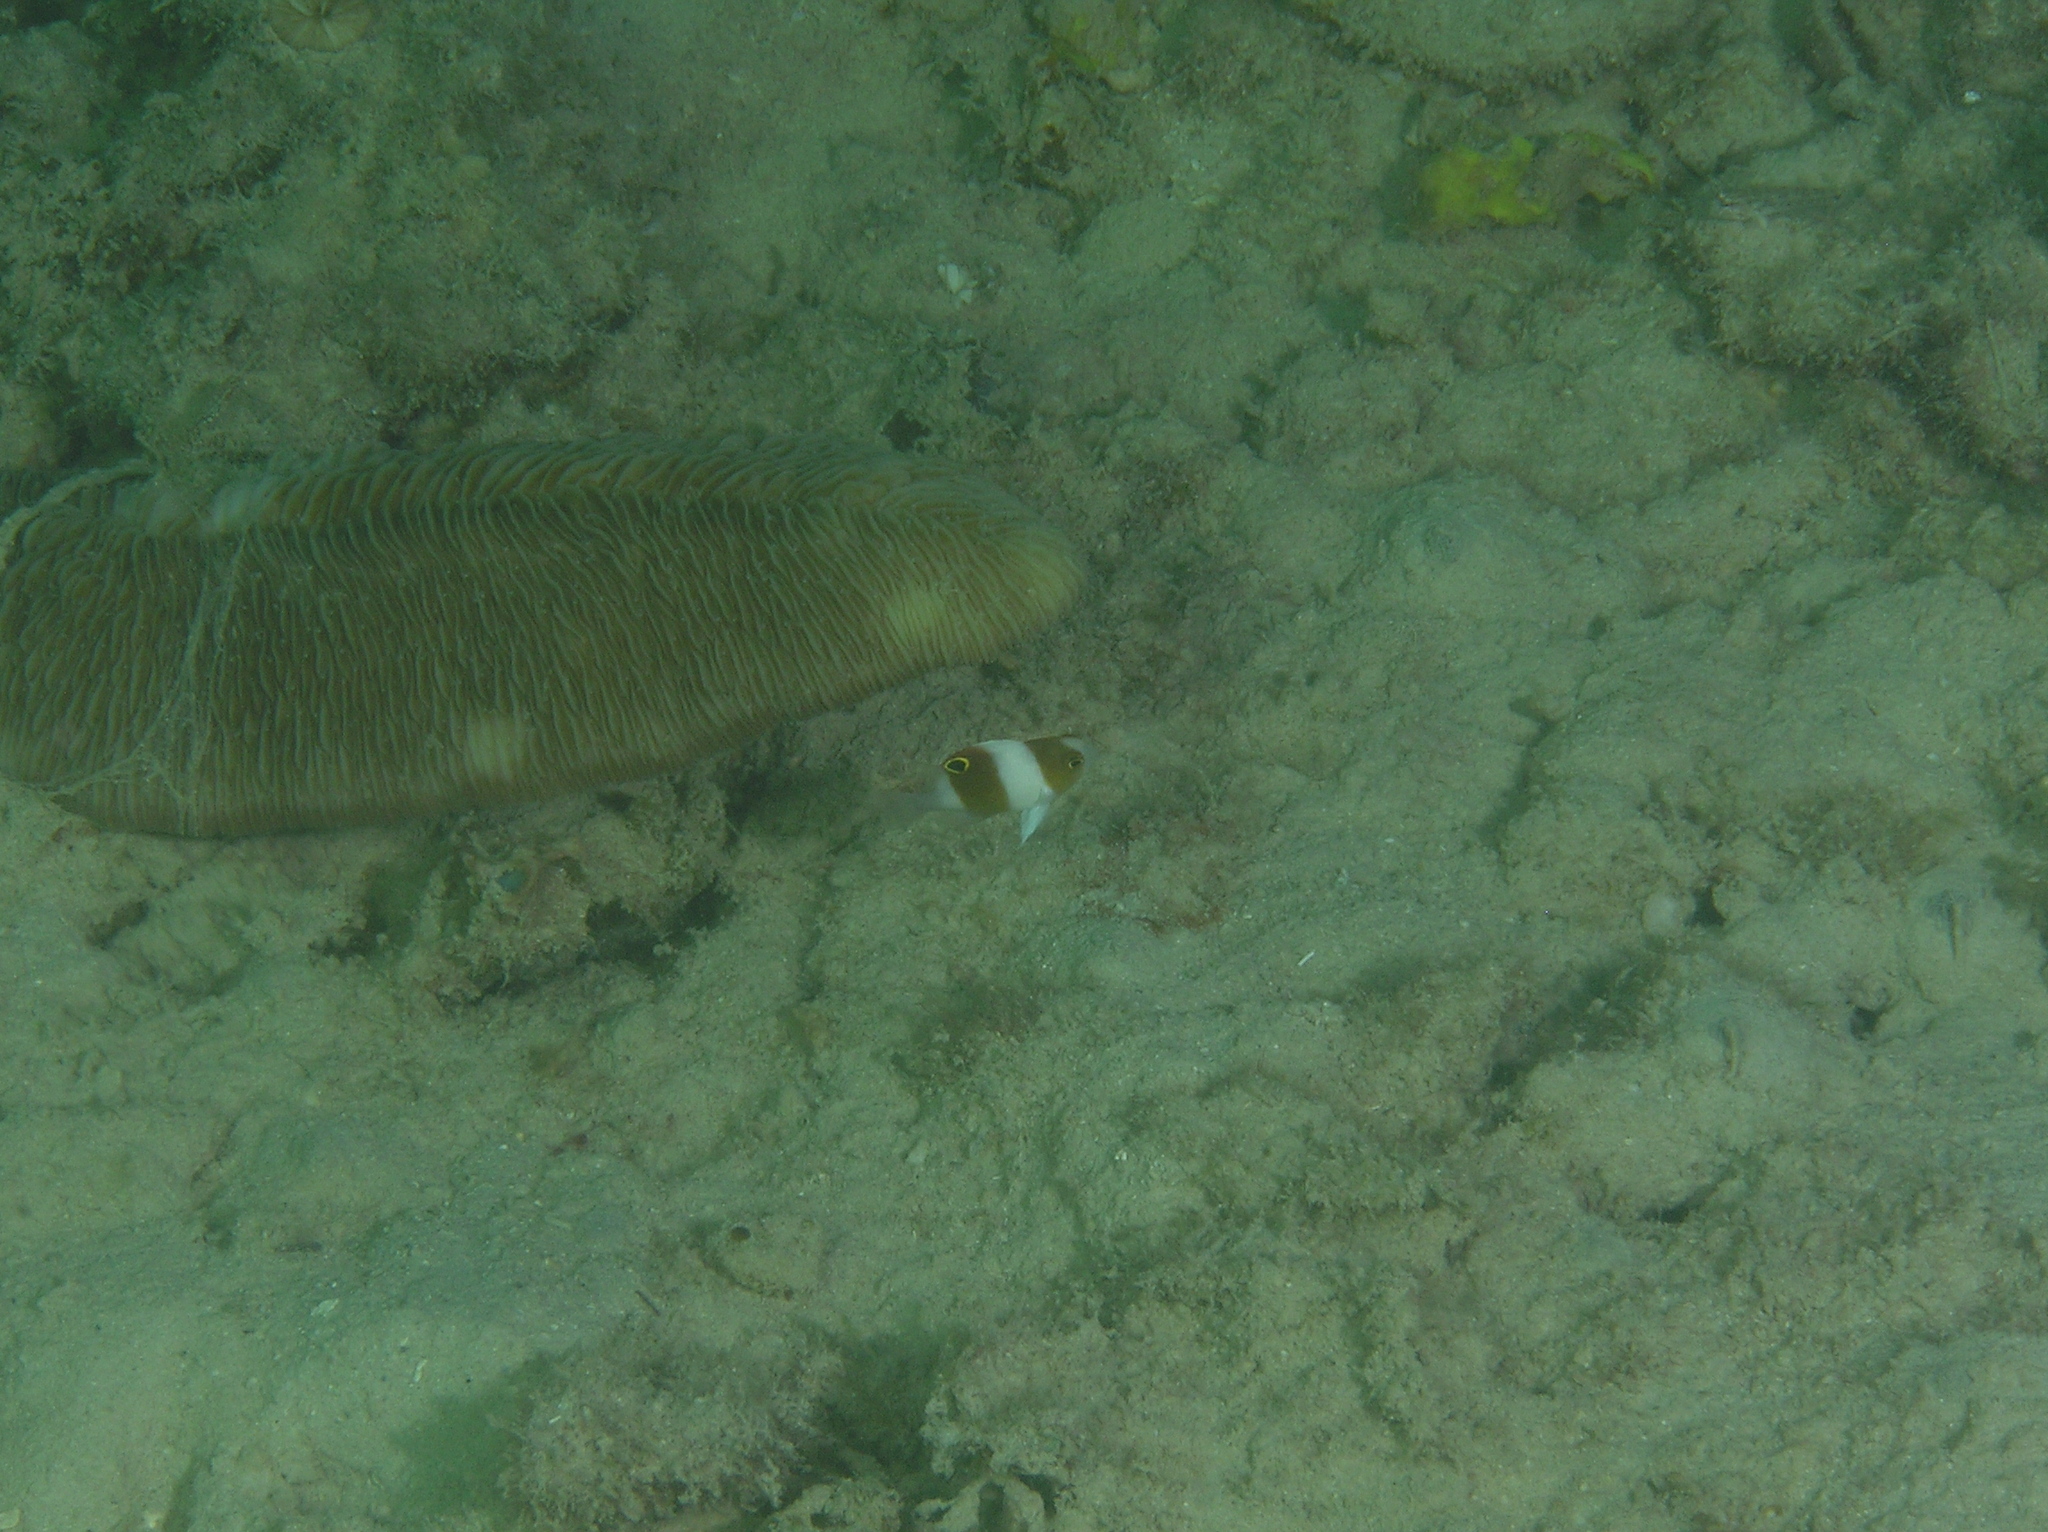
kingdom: Animalia
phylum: Chordata
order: Perciformes
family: Pomacentridae
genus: Dischistodus
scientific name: Dischistodus prosopotaenia
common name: Honey-head damsel
